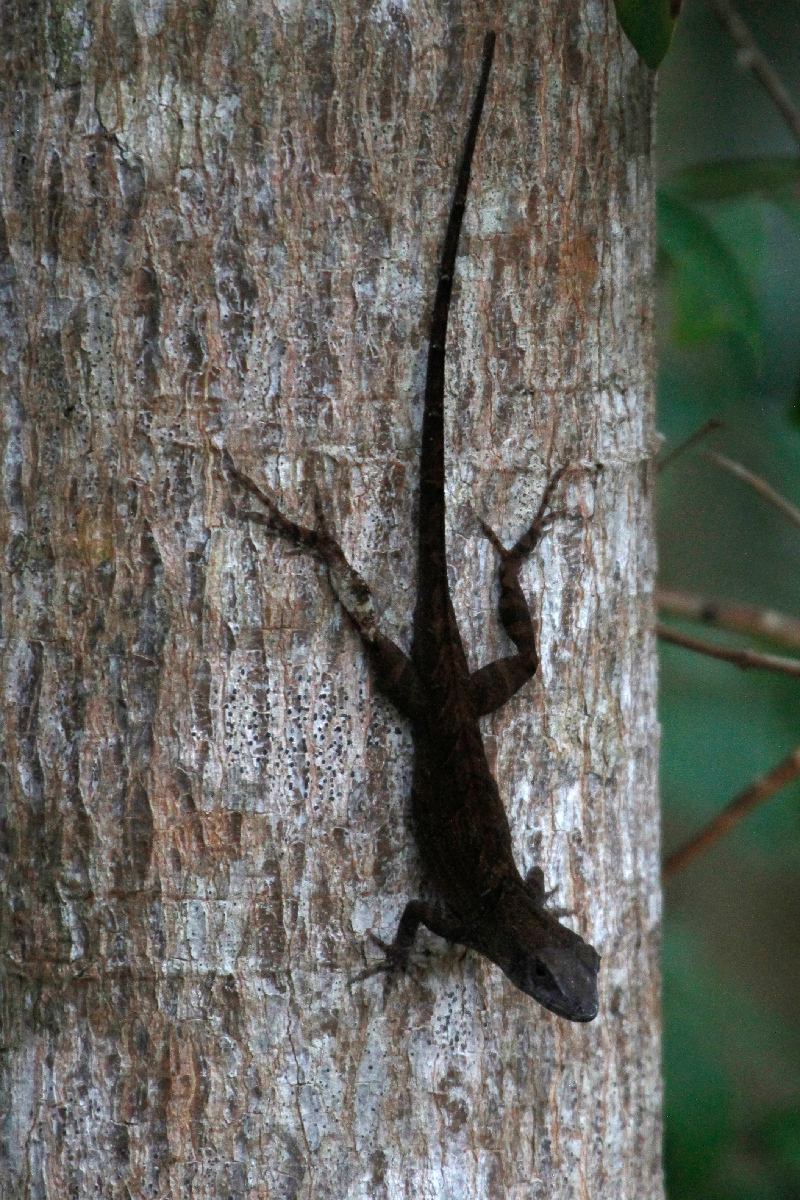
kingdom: Animalia
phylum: Chordata
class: Squamata
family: Dactyloidae
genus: Anolis
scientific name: Anolis sagrei
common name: Brown anole
